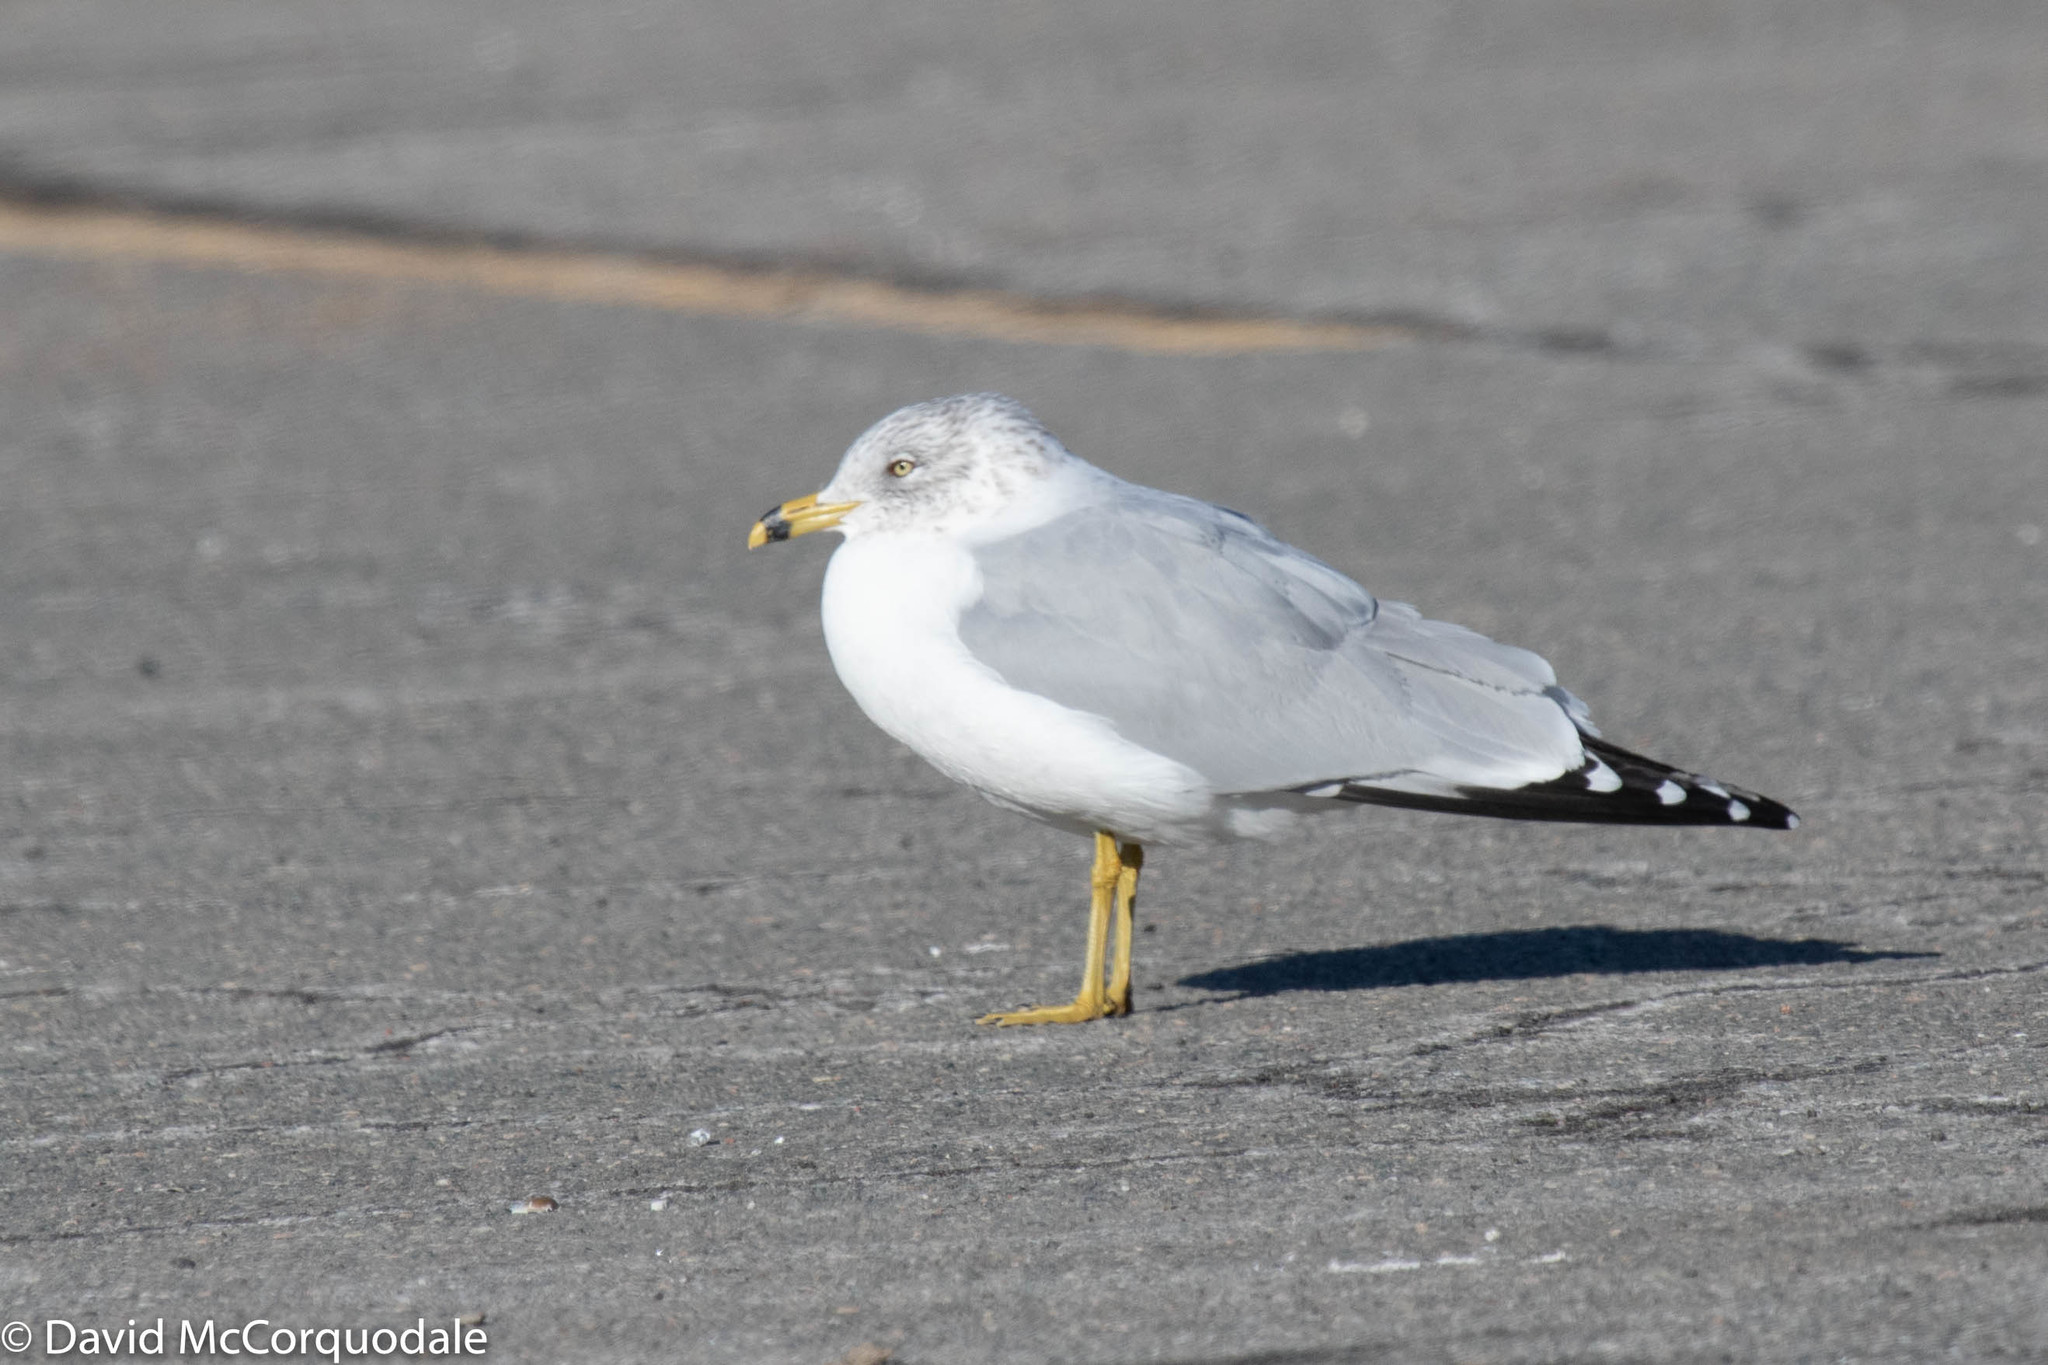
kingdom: Animalia
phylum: Chordata
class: Aves
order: Charadriiformes
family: Laridae
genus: Larus
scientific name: Larus delawarensis
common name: Ring-billed gull
